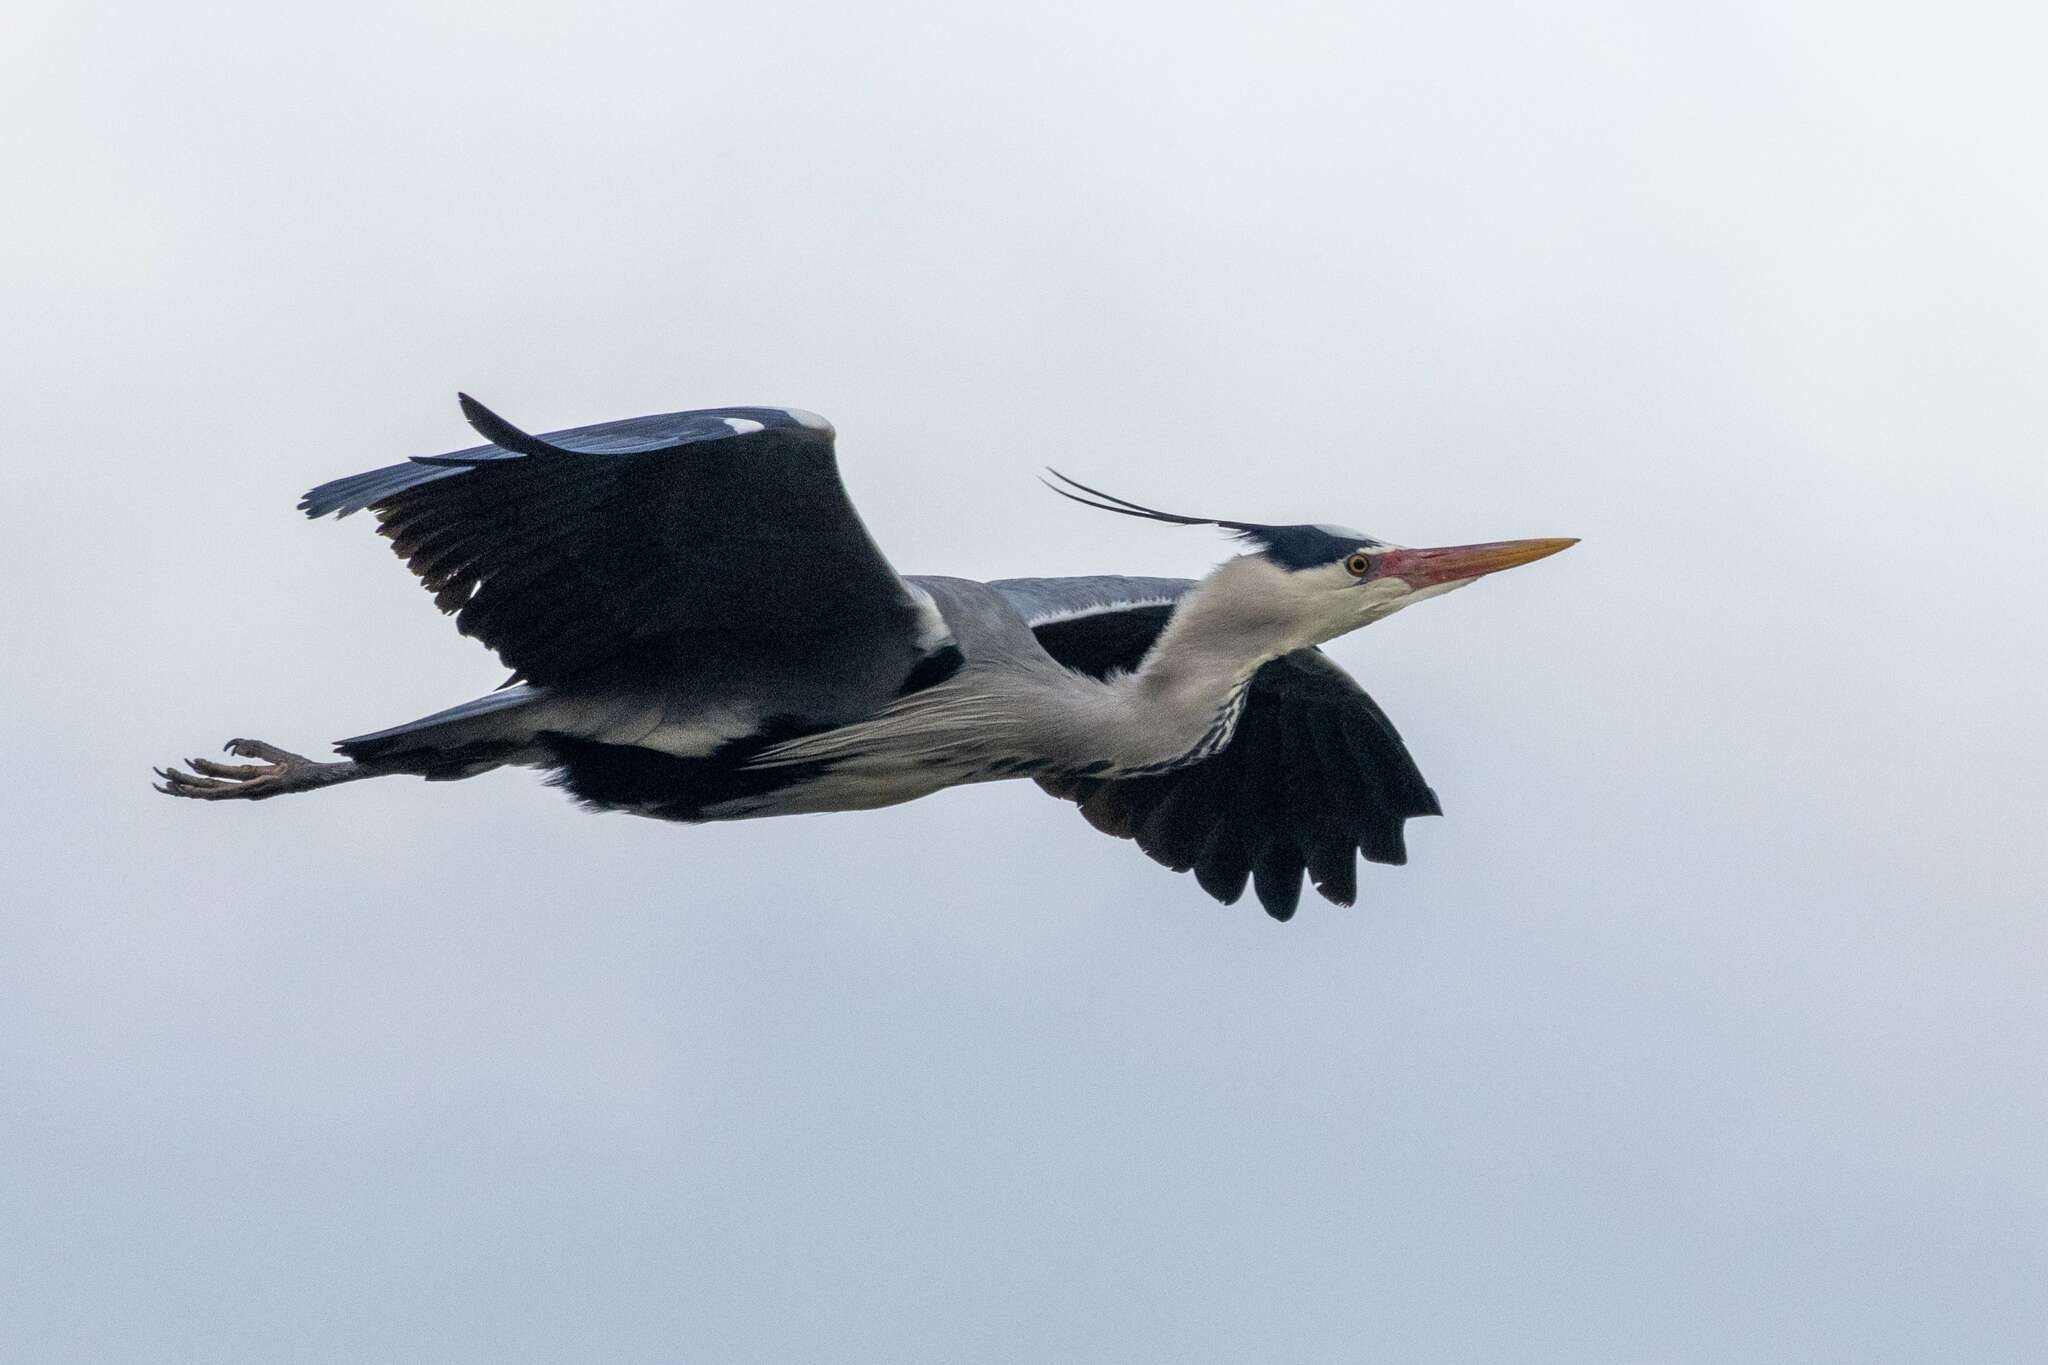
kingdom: Animalia
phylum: Chordata
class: Aves
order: Pelecaniformes
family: Ardeidae
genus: Ardea
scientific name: Ardea cinerea
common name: Grey heron
